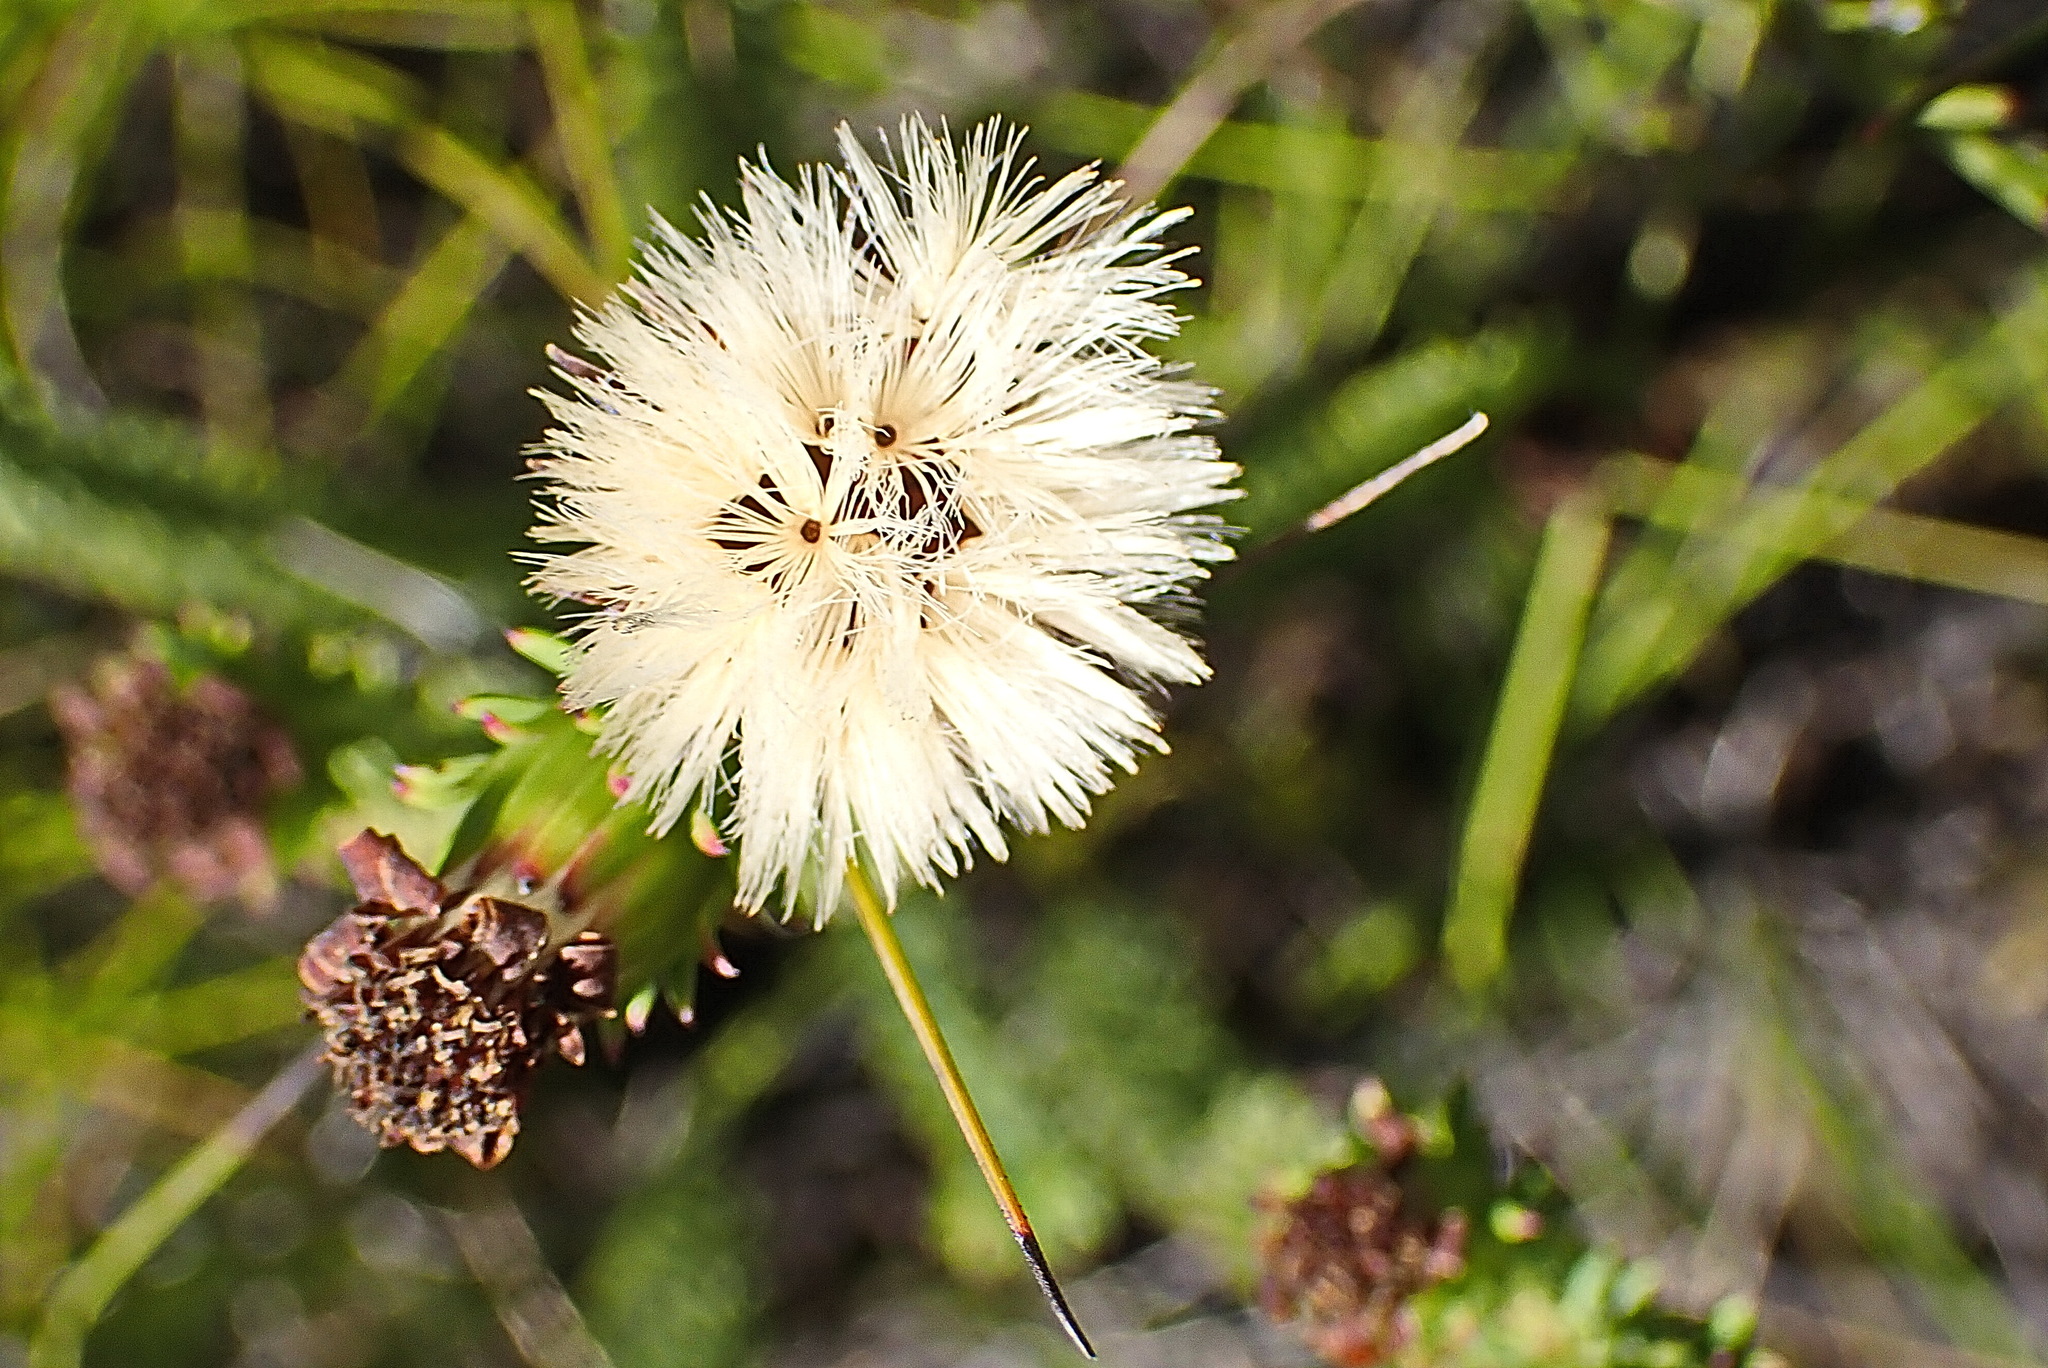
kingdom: Plantae
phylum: Tracheophyta
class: Magnoliopsida
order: Asterales
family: Asteraceae
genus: Senecio
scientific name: Senecio pinifolius
